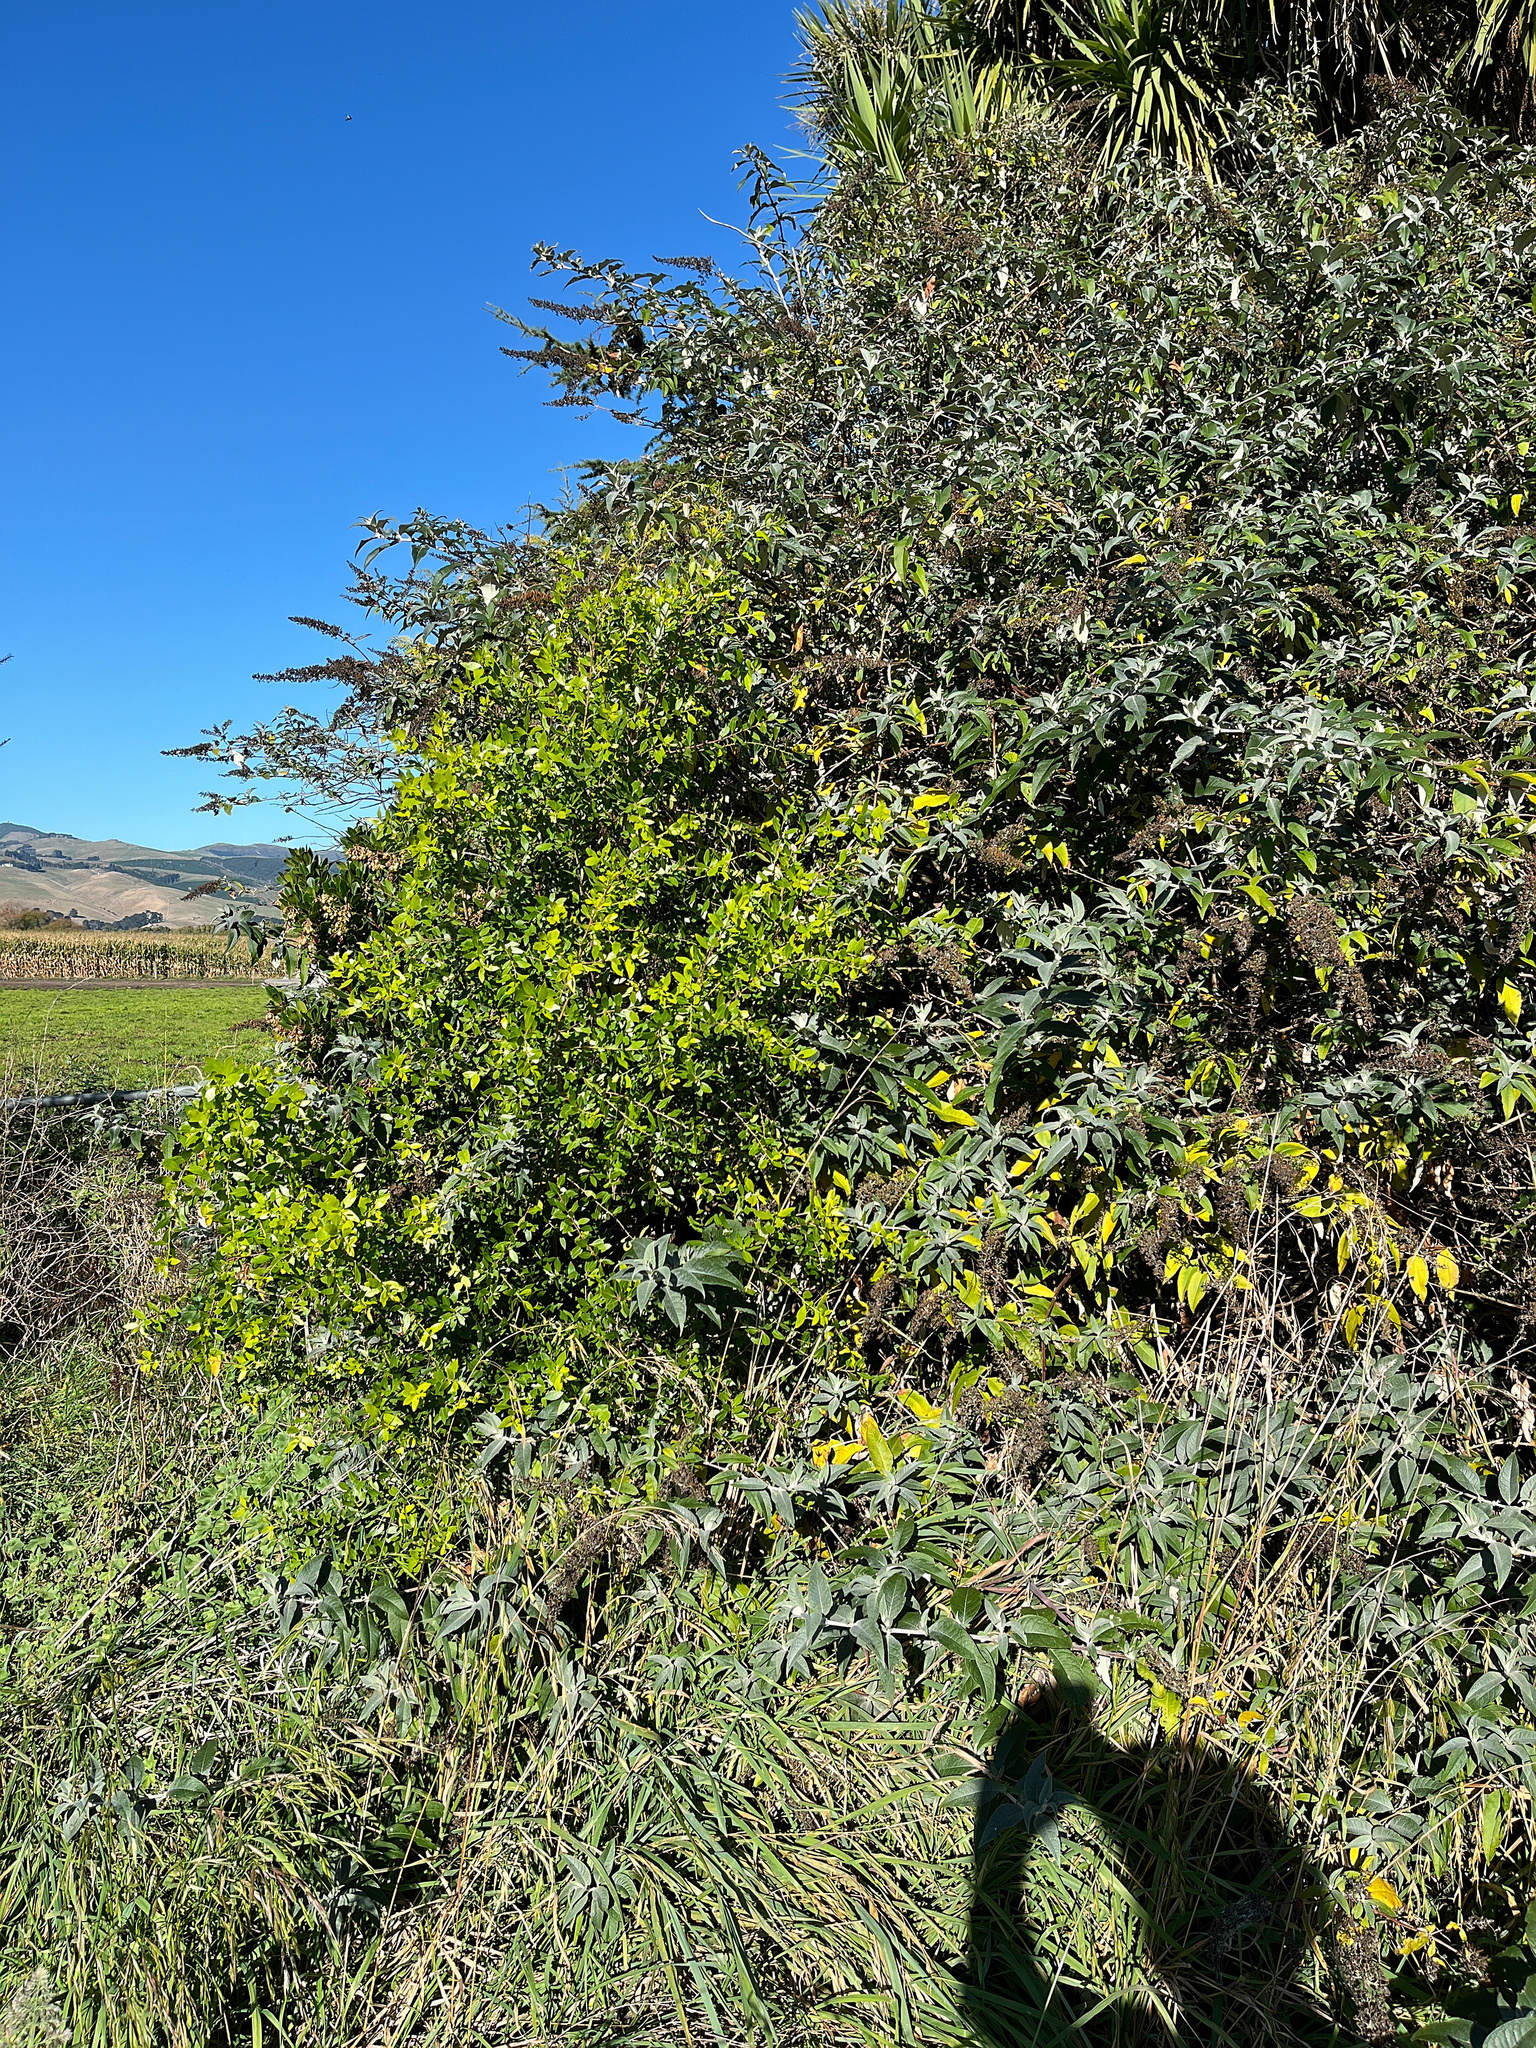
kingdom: Plantae
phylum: Tracheophyta
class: Magnoliopsida
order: Celastrales
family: Celastraceae
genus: Maytenus
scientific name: Maytenus boaria
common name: Mayten
